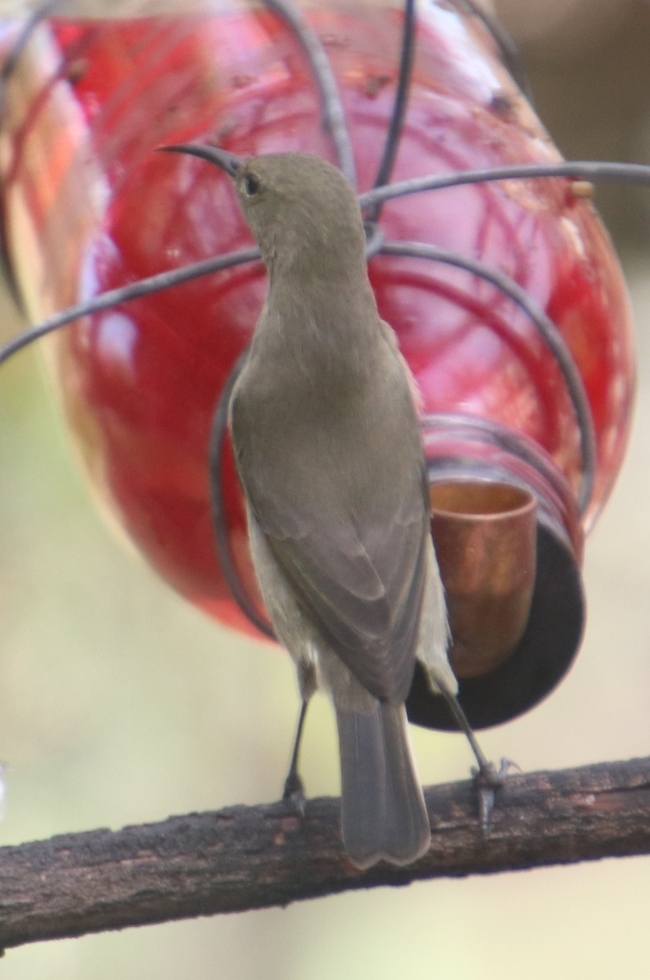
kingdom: Animalia
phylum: Chordata
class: Aves
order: Passeriformes
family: Nectariniidae
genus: Cinnyris
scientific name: Cinnyris chalybeus
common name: Southern double-collared sunbird
